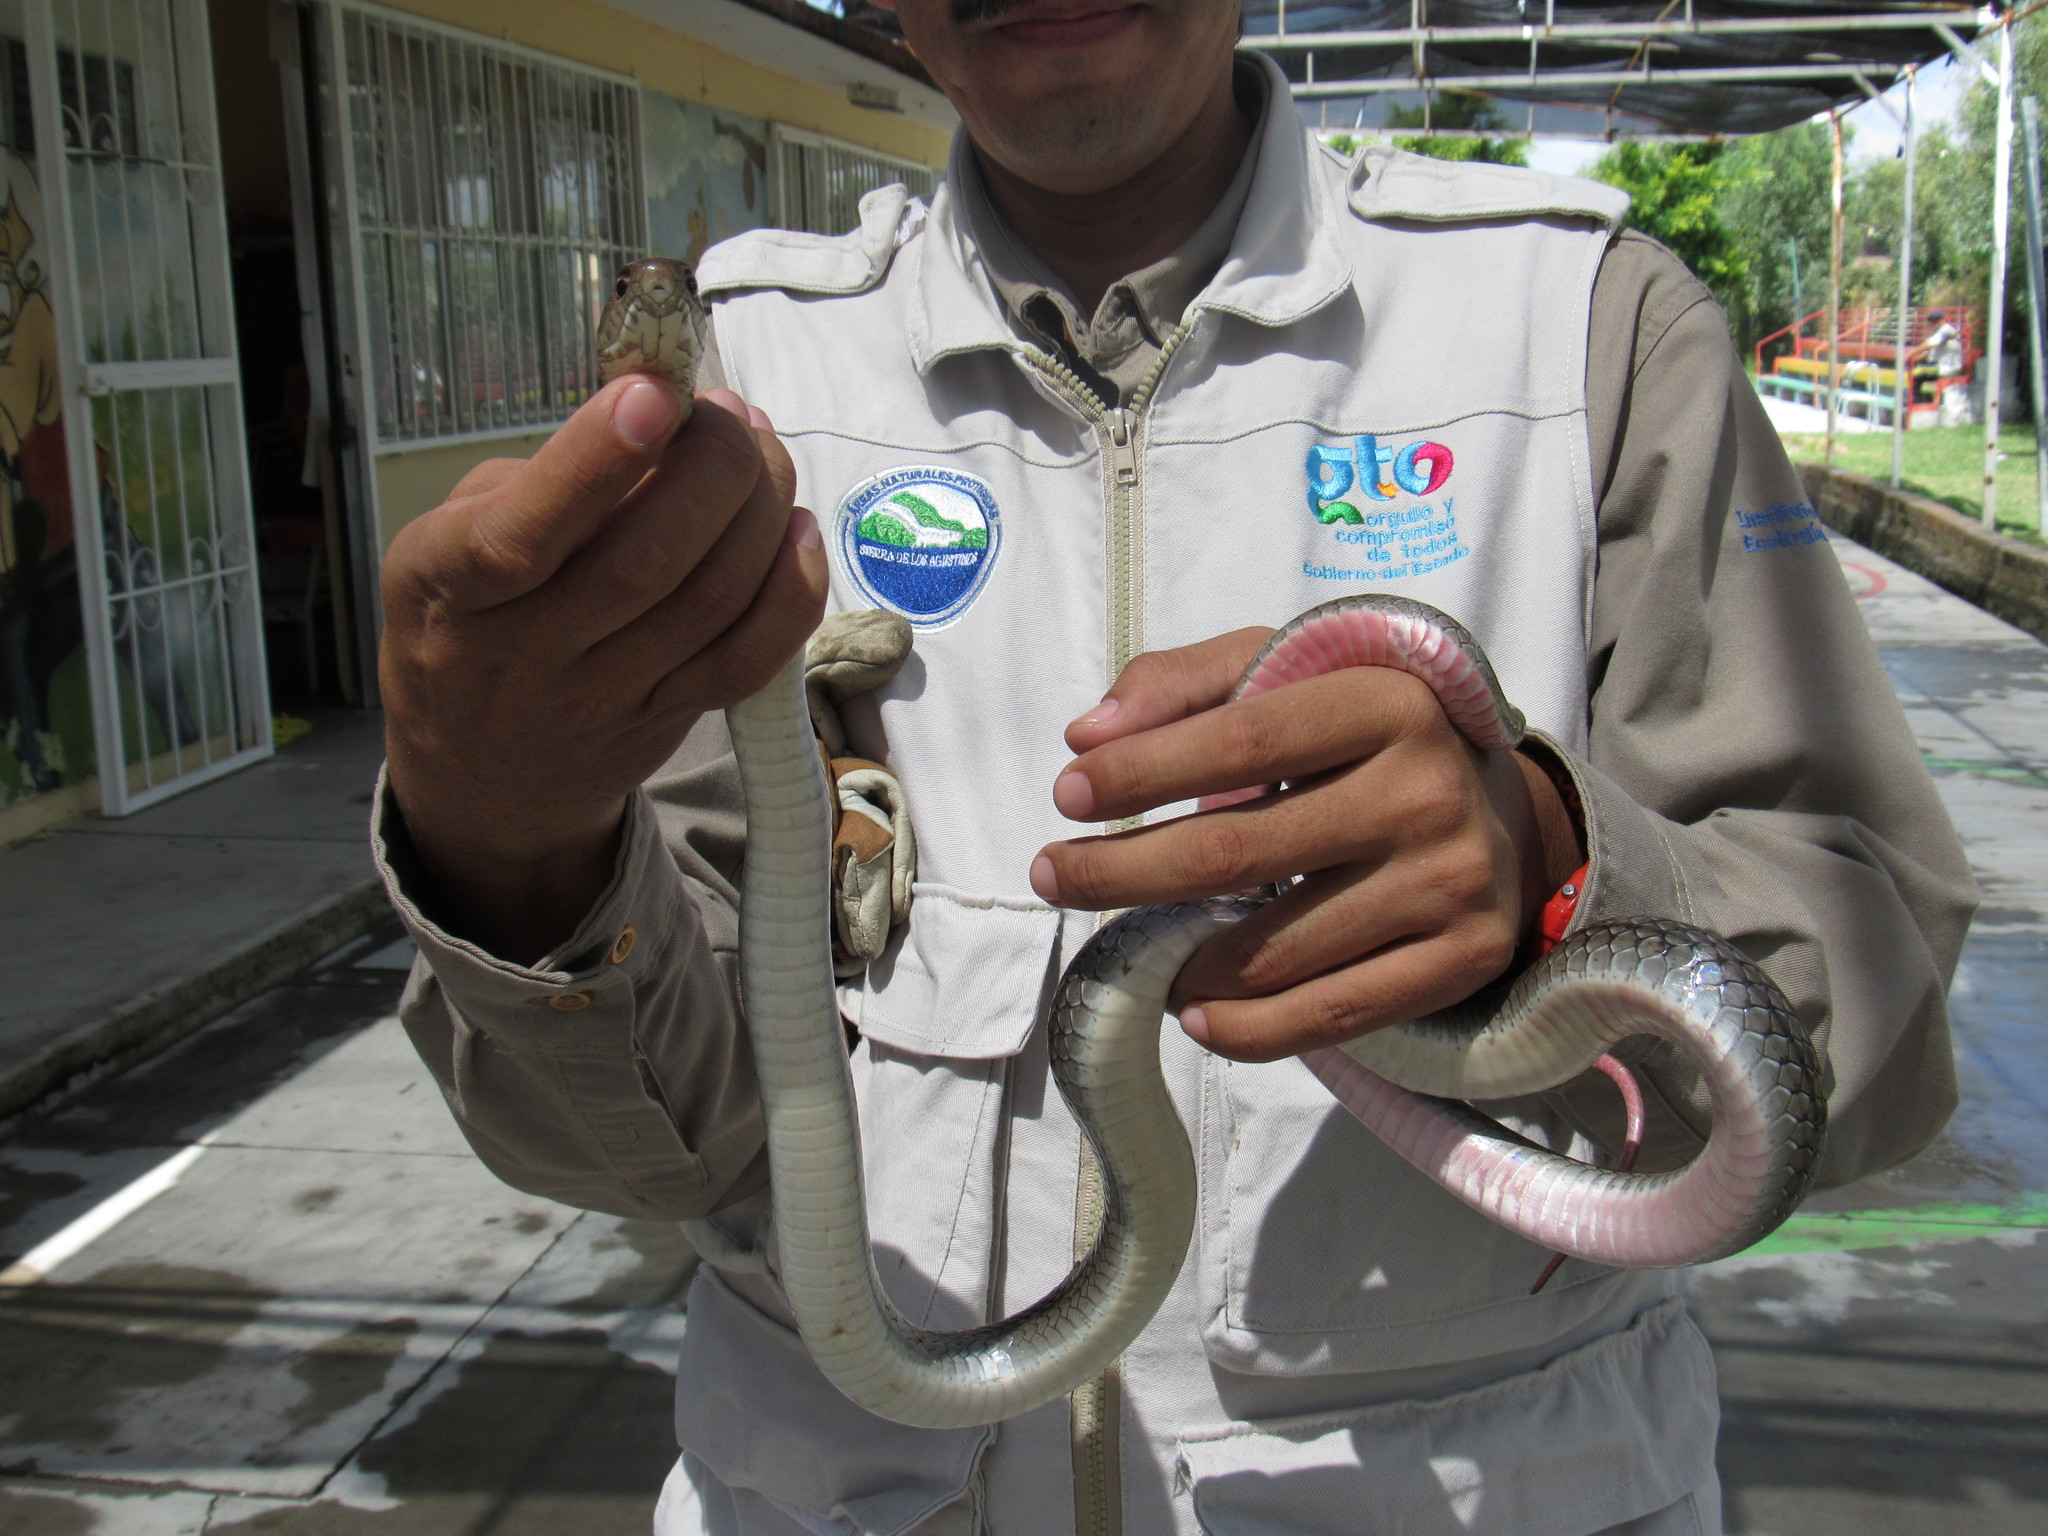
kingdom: Animalia
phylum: Chordata
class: Squamata
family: Colubridae
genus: Masticophis
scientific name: Masticophis mentovarius
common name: Neotropical whip snake
